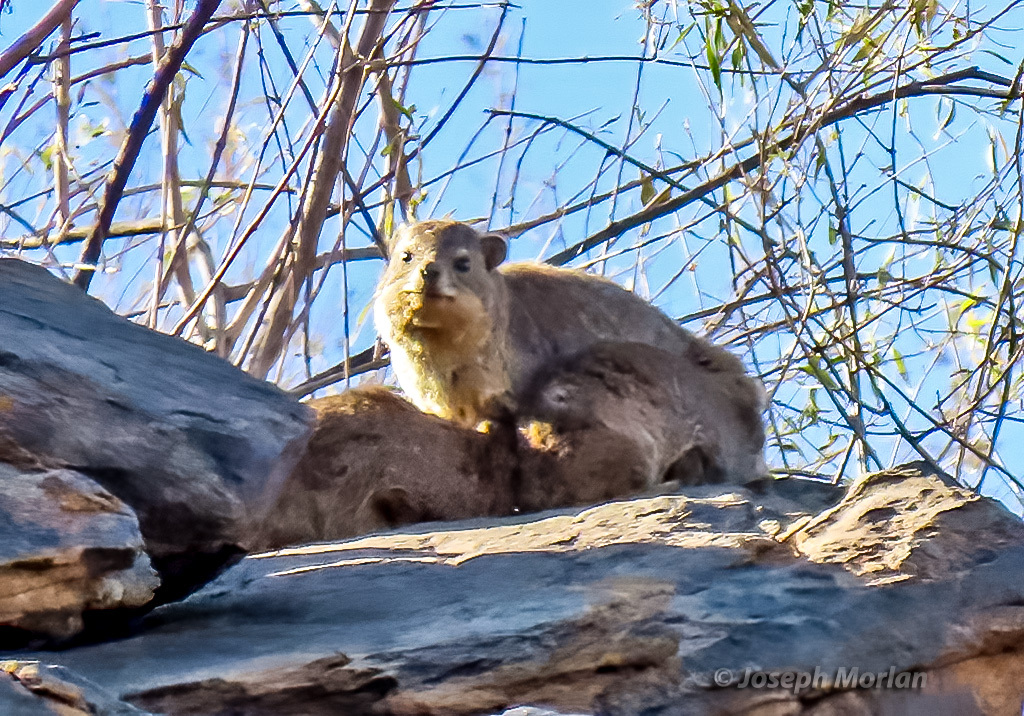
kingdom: Animalia
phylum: Chordata
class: Mammalia
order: Hyracoidea
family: Procaviidae
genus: Procavia
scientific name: Procavia capensis
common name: Rock hyrax
